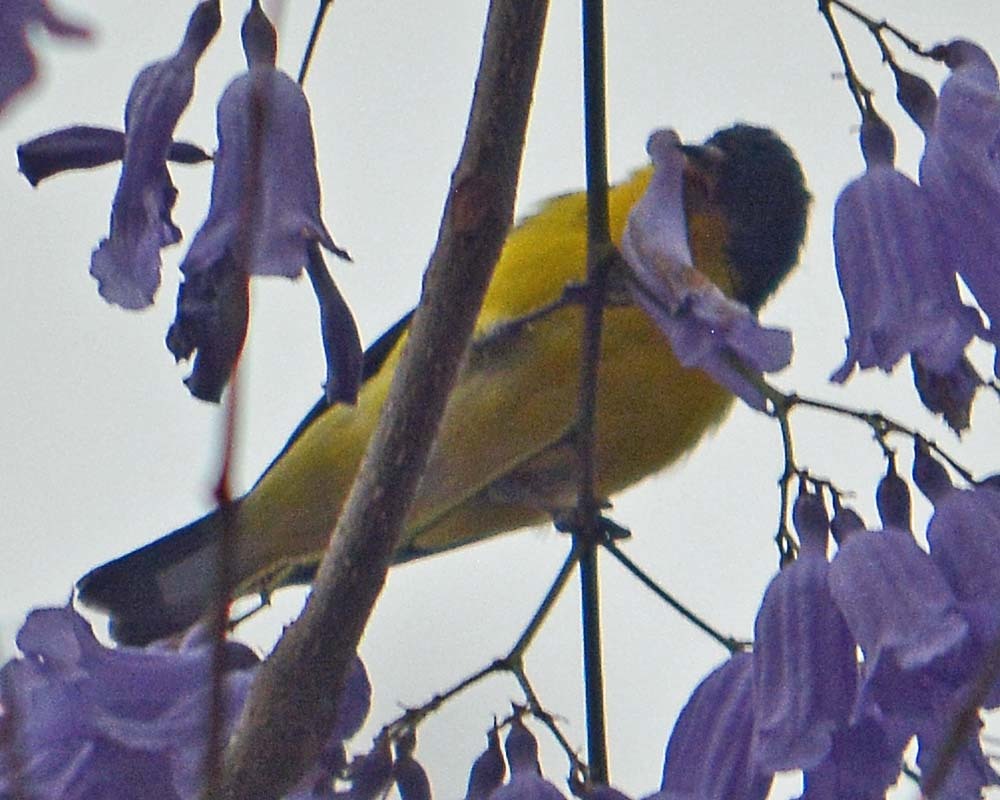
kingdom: Animalia
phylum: Chordata
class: Aves
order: Passeriformes
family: Fringillidae
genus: Spinus
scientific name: Spinus psaltria
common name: Lesser goldfinch
